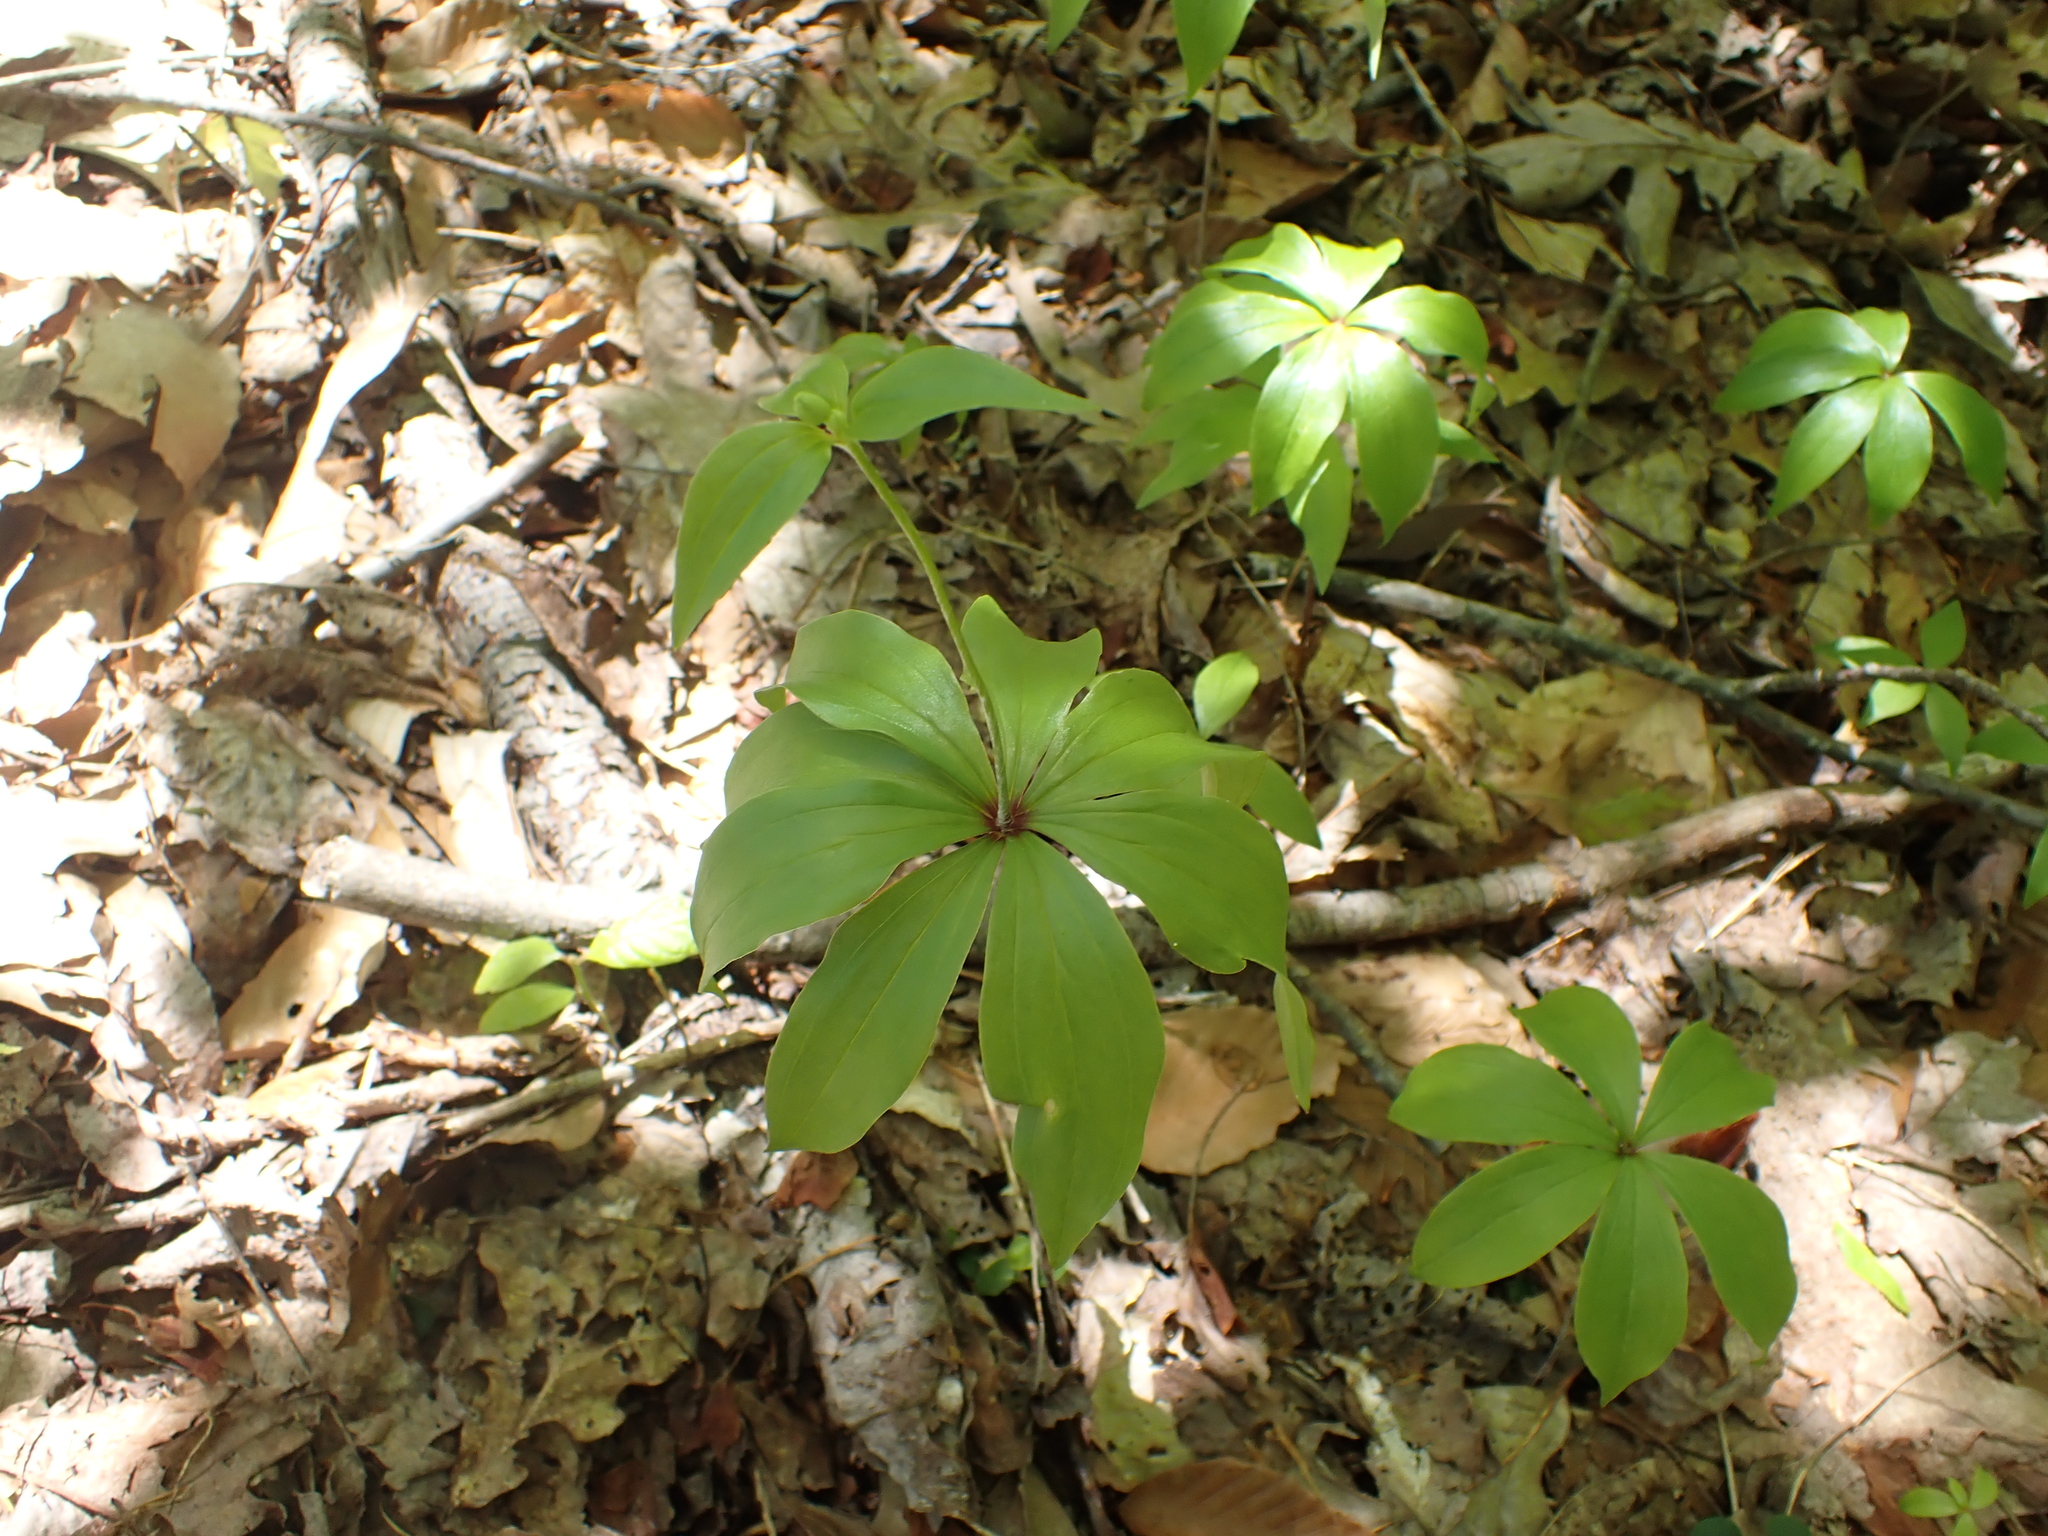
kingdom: Plantae
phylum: Tracheophyta
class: Liliopsida
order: Liliales
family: Liliaceae
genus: Medeola
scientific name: Medeola virginiana
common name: Indian cucumber-root
